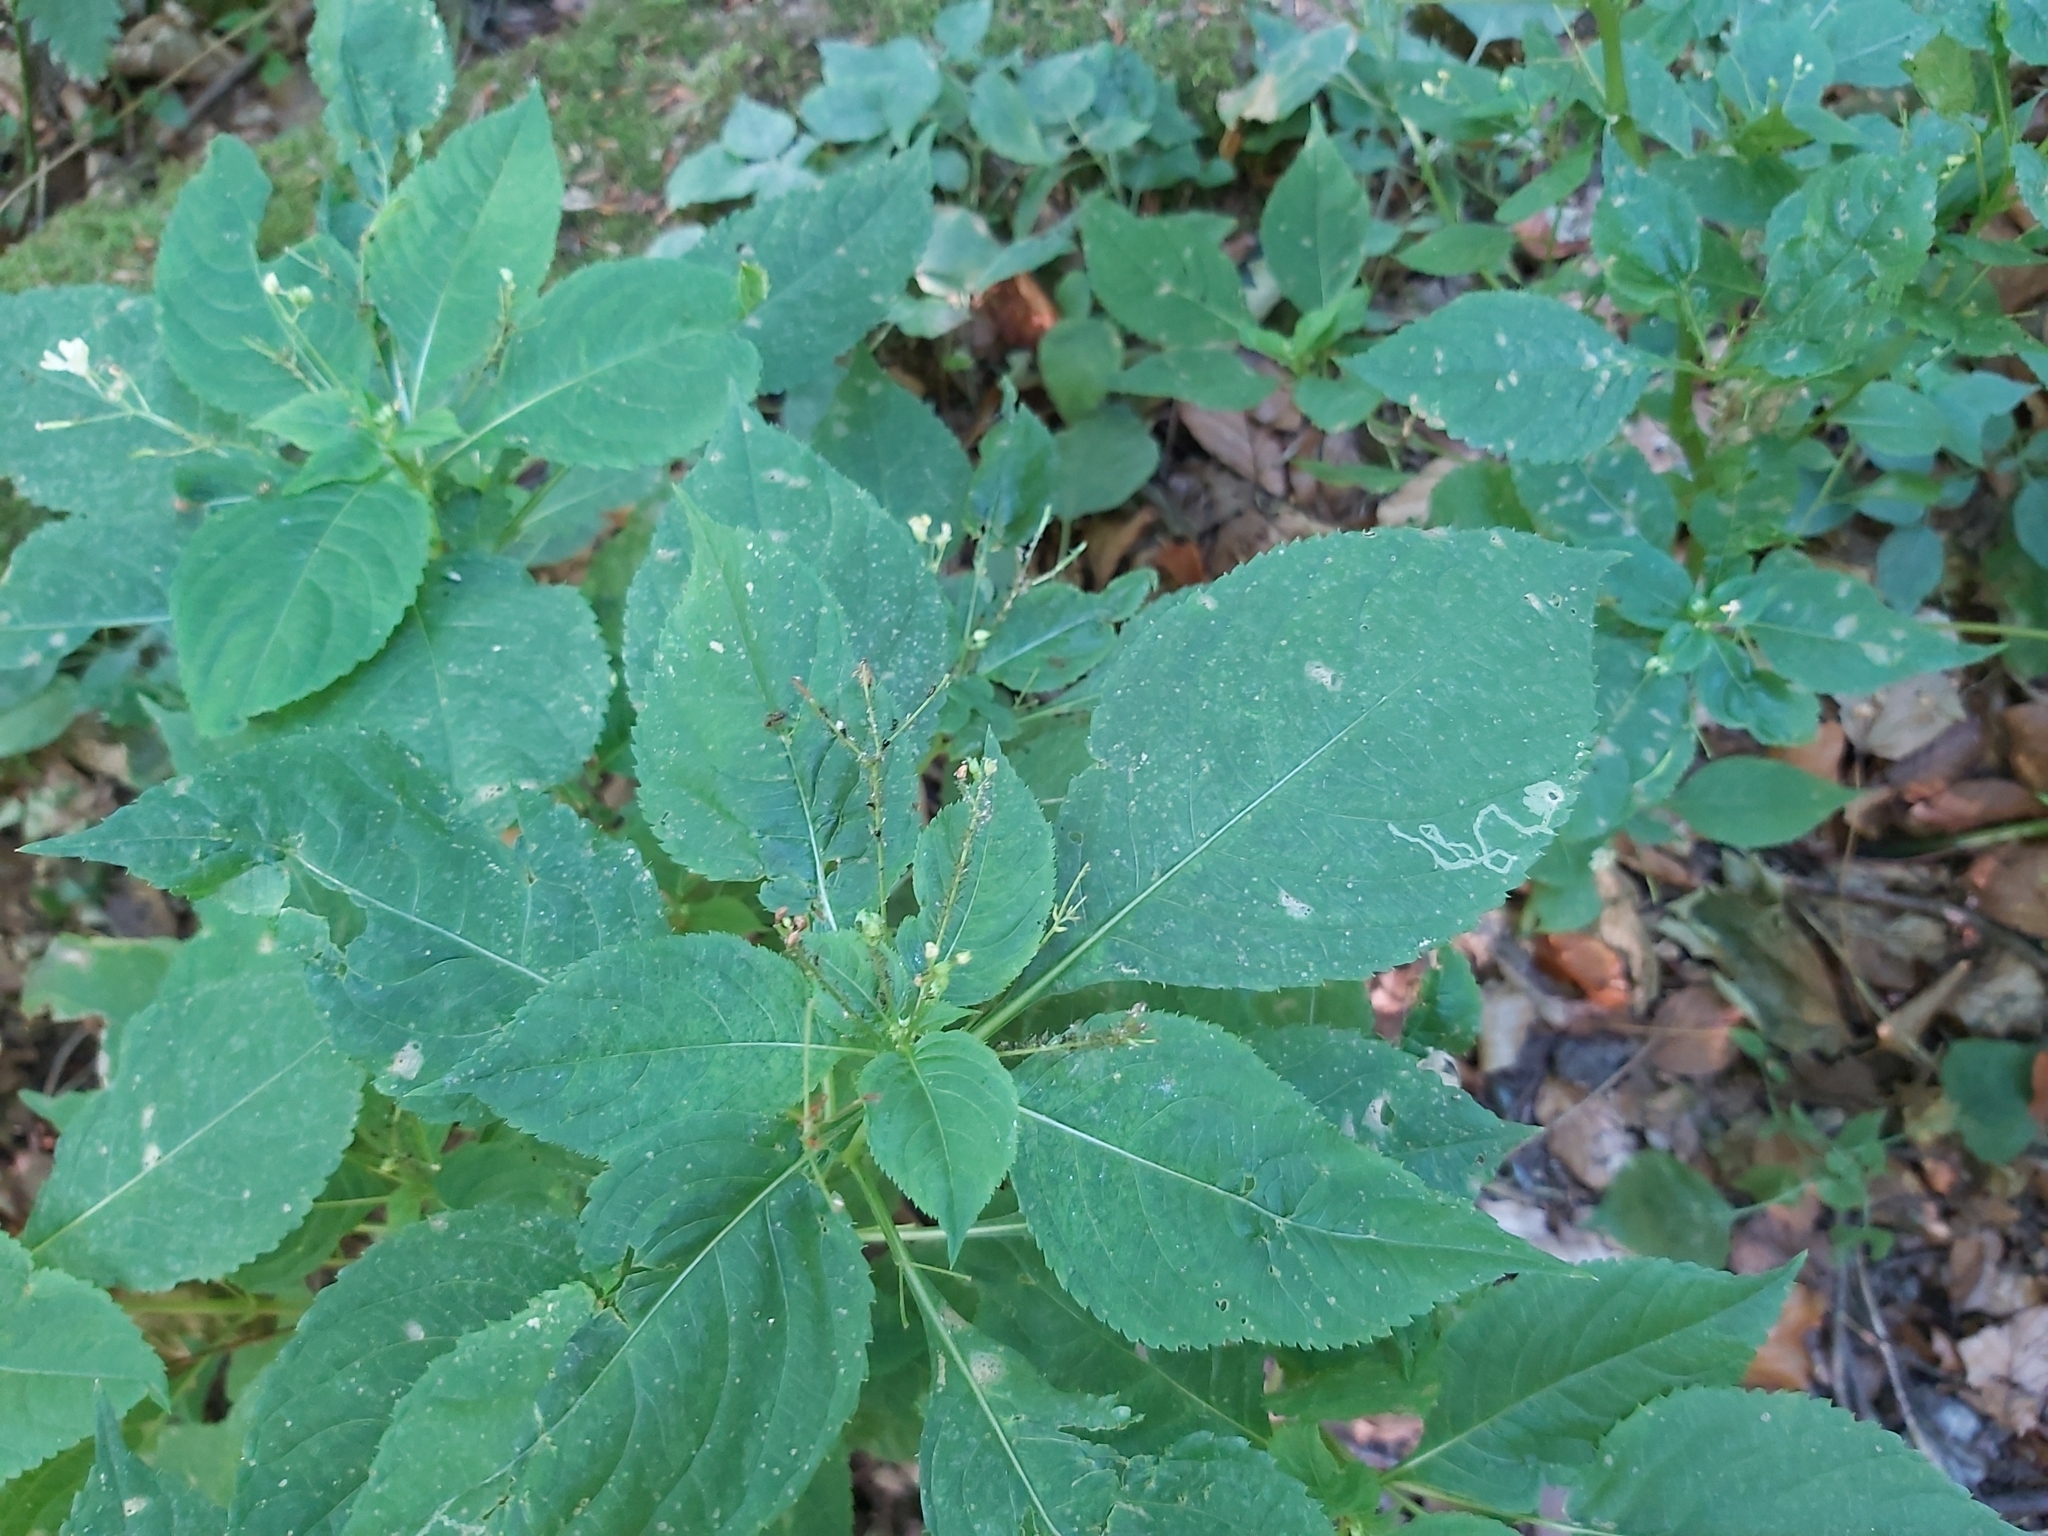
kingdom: Animalia
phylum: Arthropoda
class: Insecta
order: Diptera
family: Agromyzidae
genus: Phytoliriomyza
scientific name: Phytoliriomyza melampyga
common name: Jewelweed leaf-miner fly
